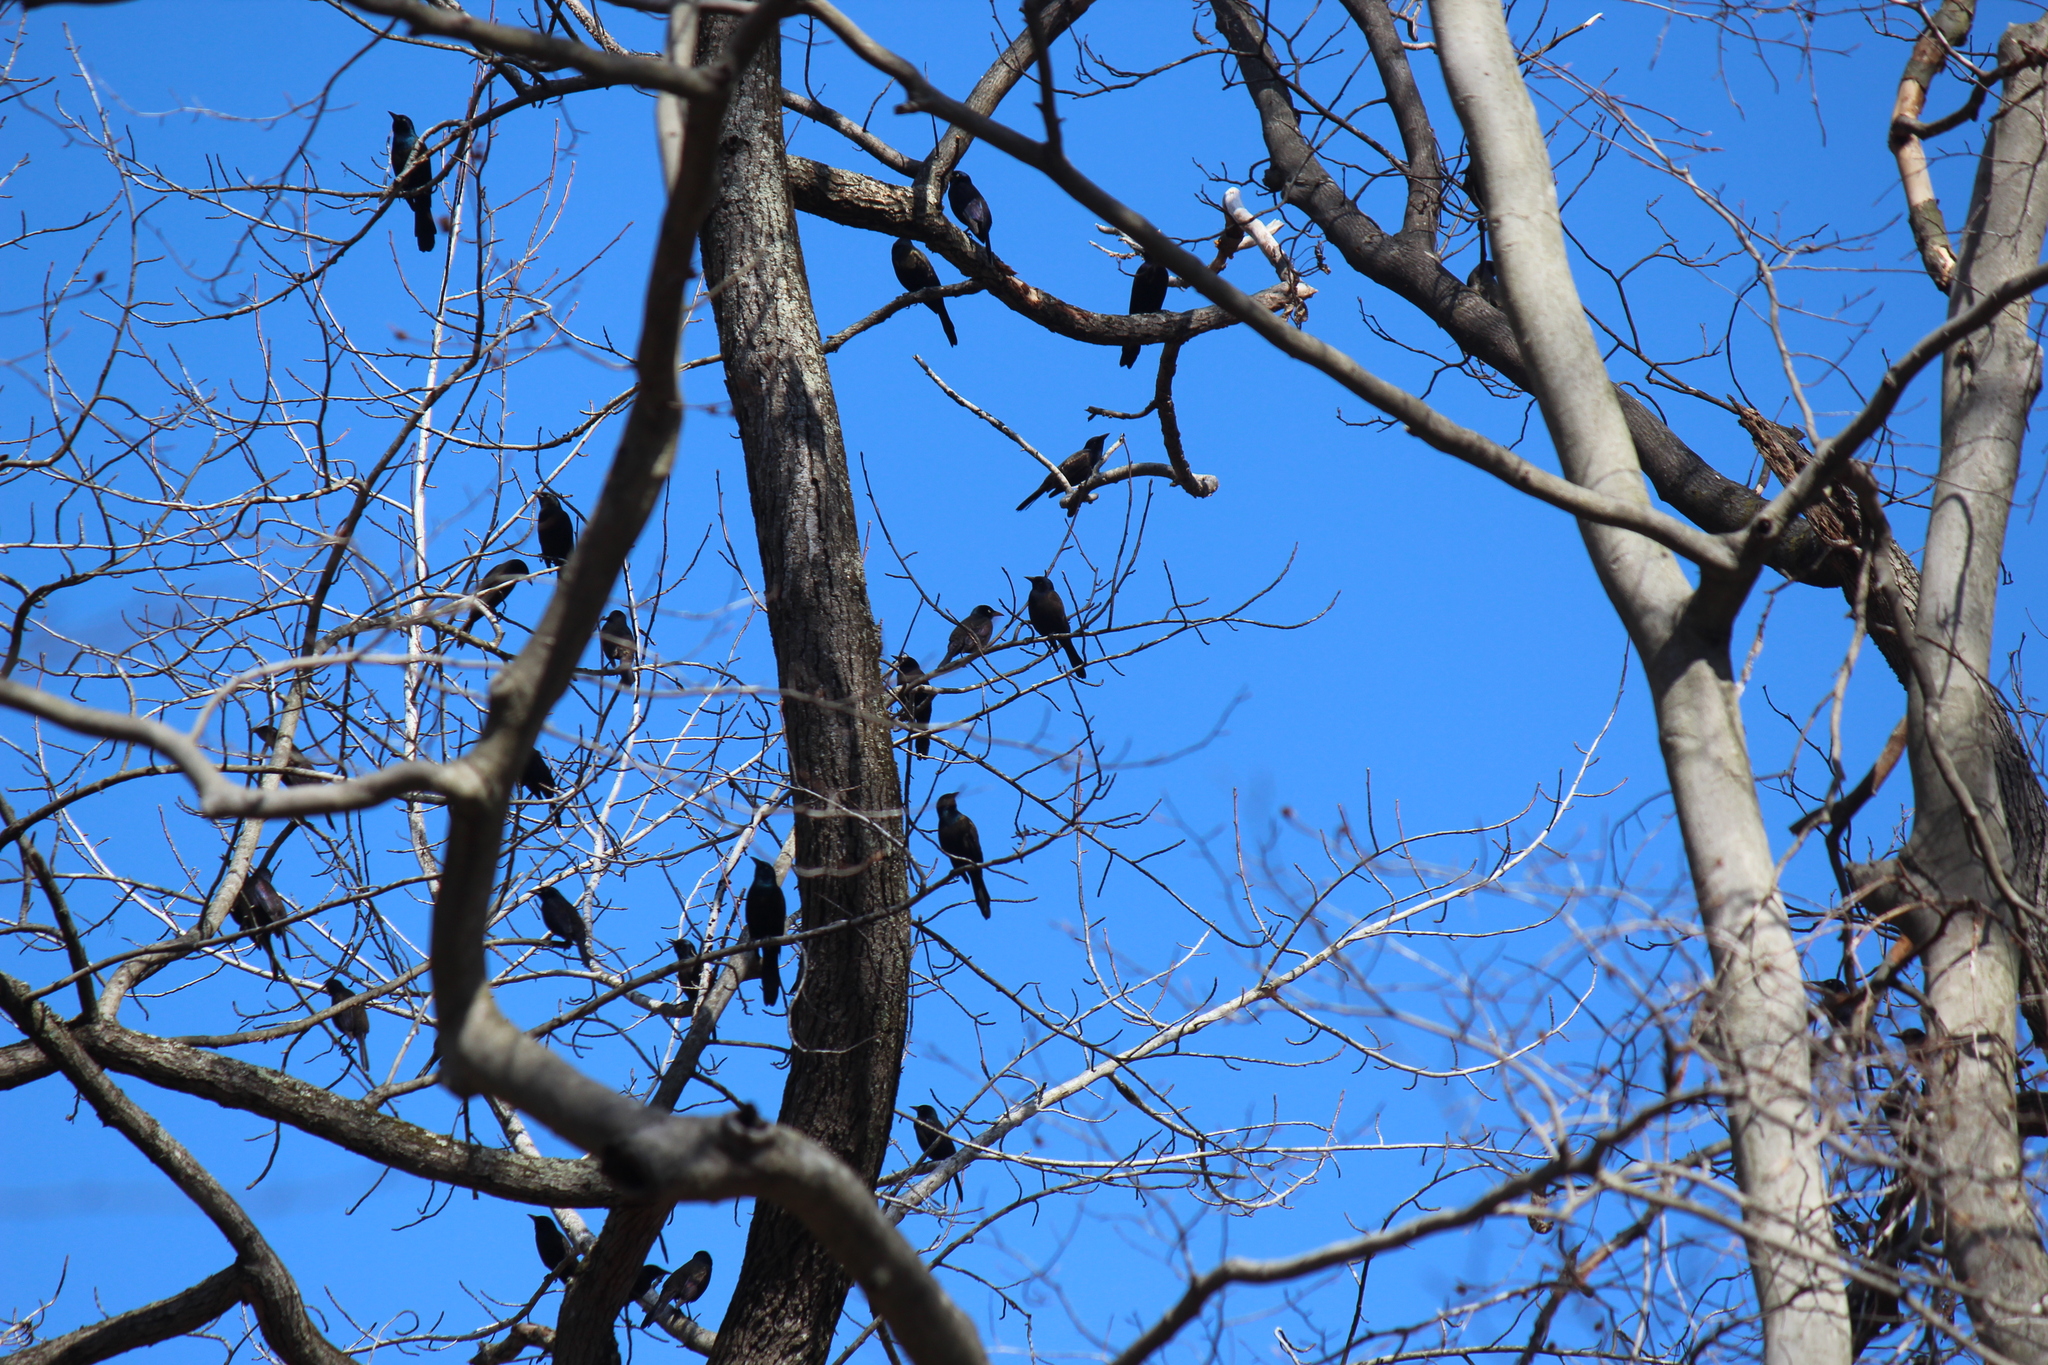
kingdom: Animalia
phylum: Chordata
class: Aves
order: Passeriformes
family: Icteridae
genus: Quiscalus
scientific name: Quiscalus quiscula
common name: Common grackle
